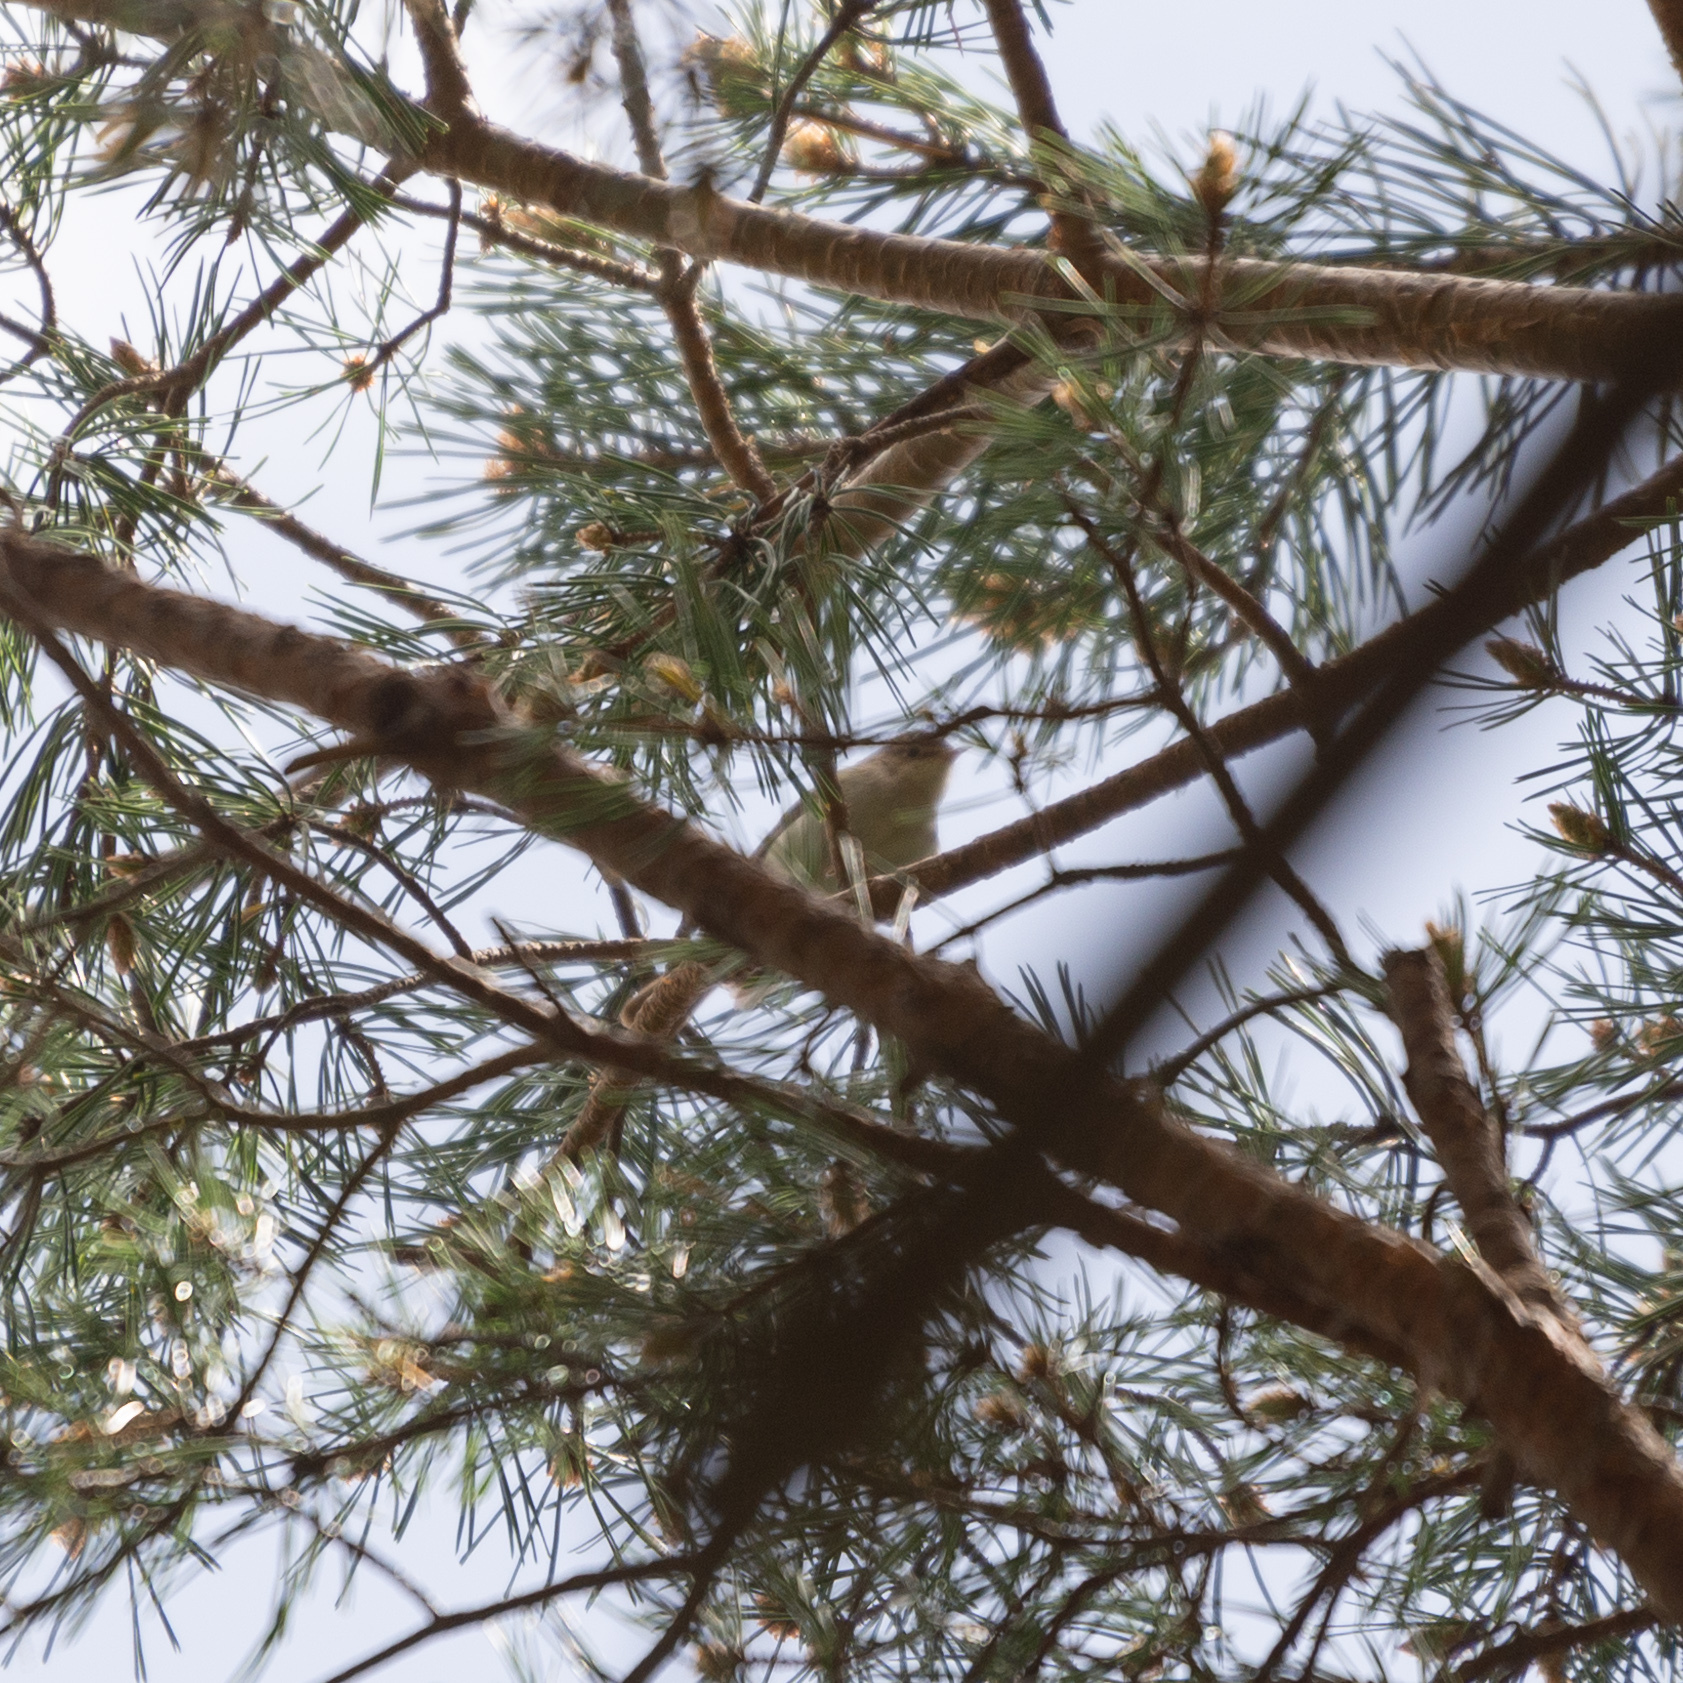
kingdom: Animalia
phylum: Chordata
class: Aves
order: Passeriformes
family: Phylloscopidae
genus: Phylloscopus
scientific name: Phylloscopus bonelli
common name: Western bonelli's warbler
